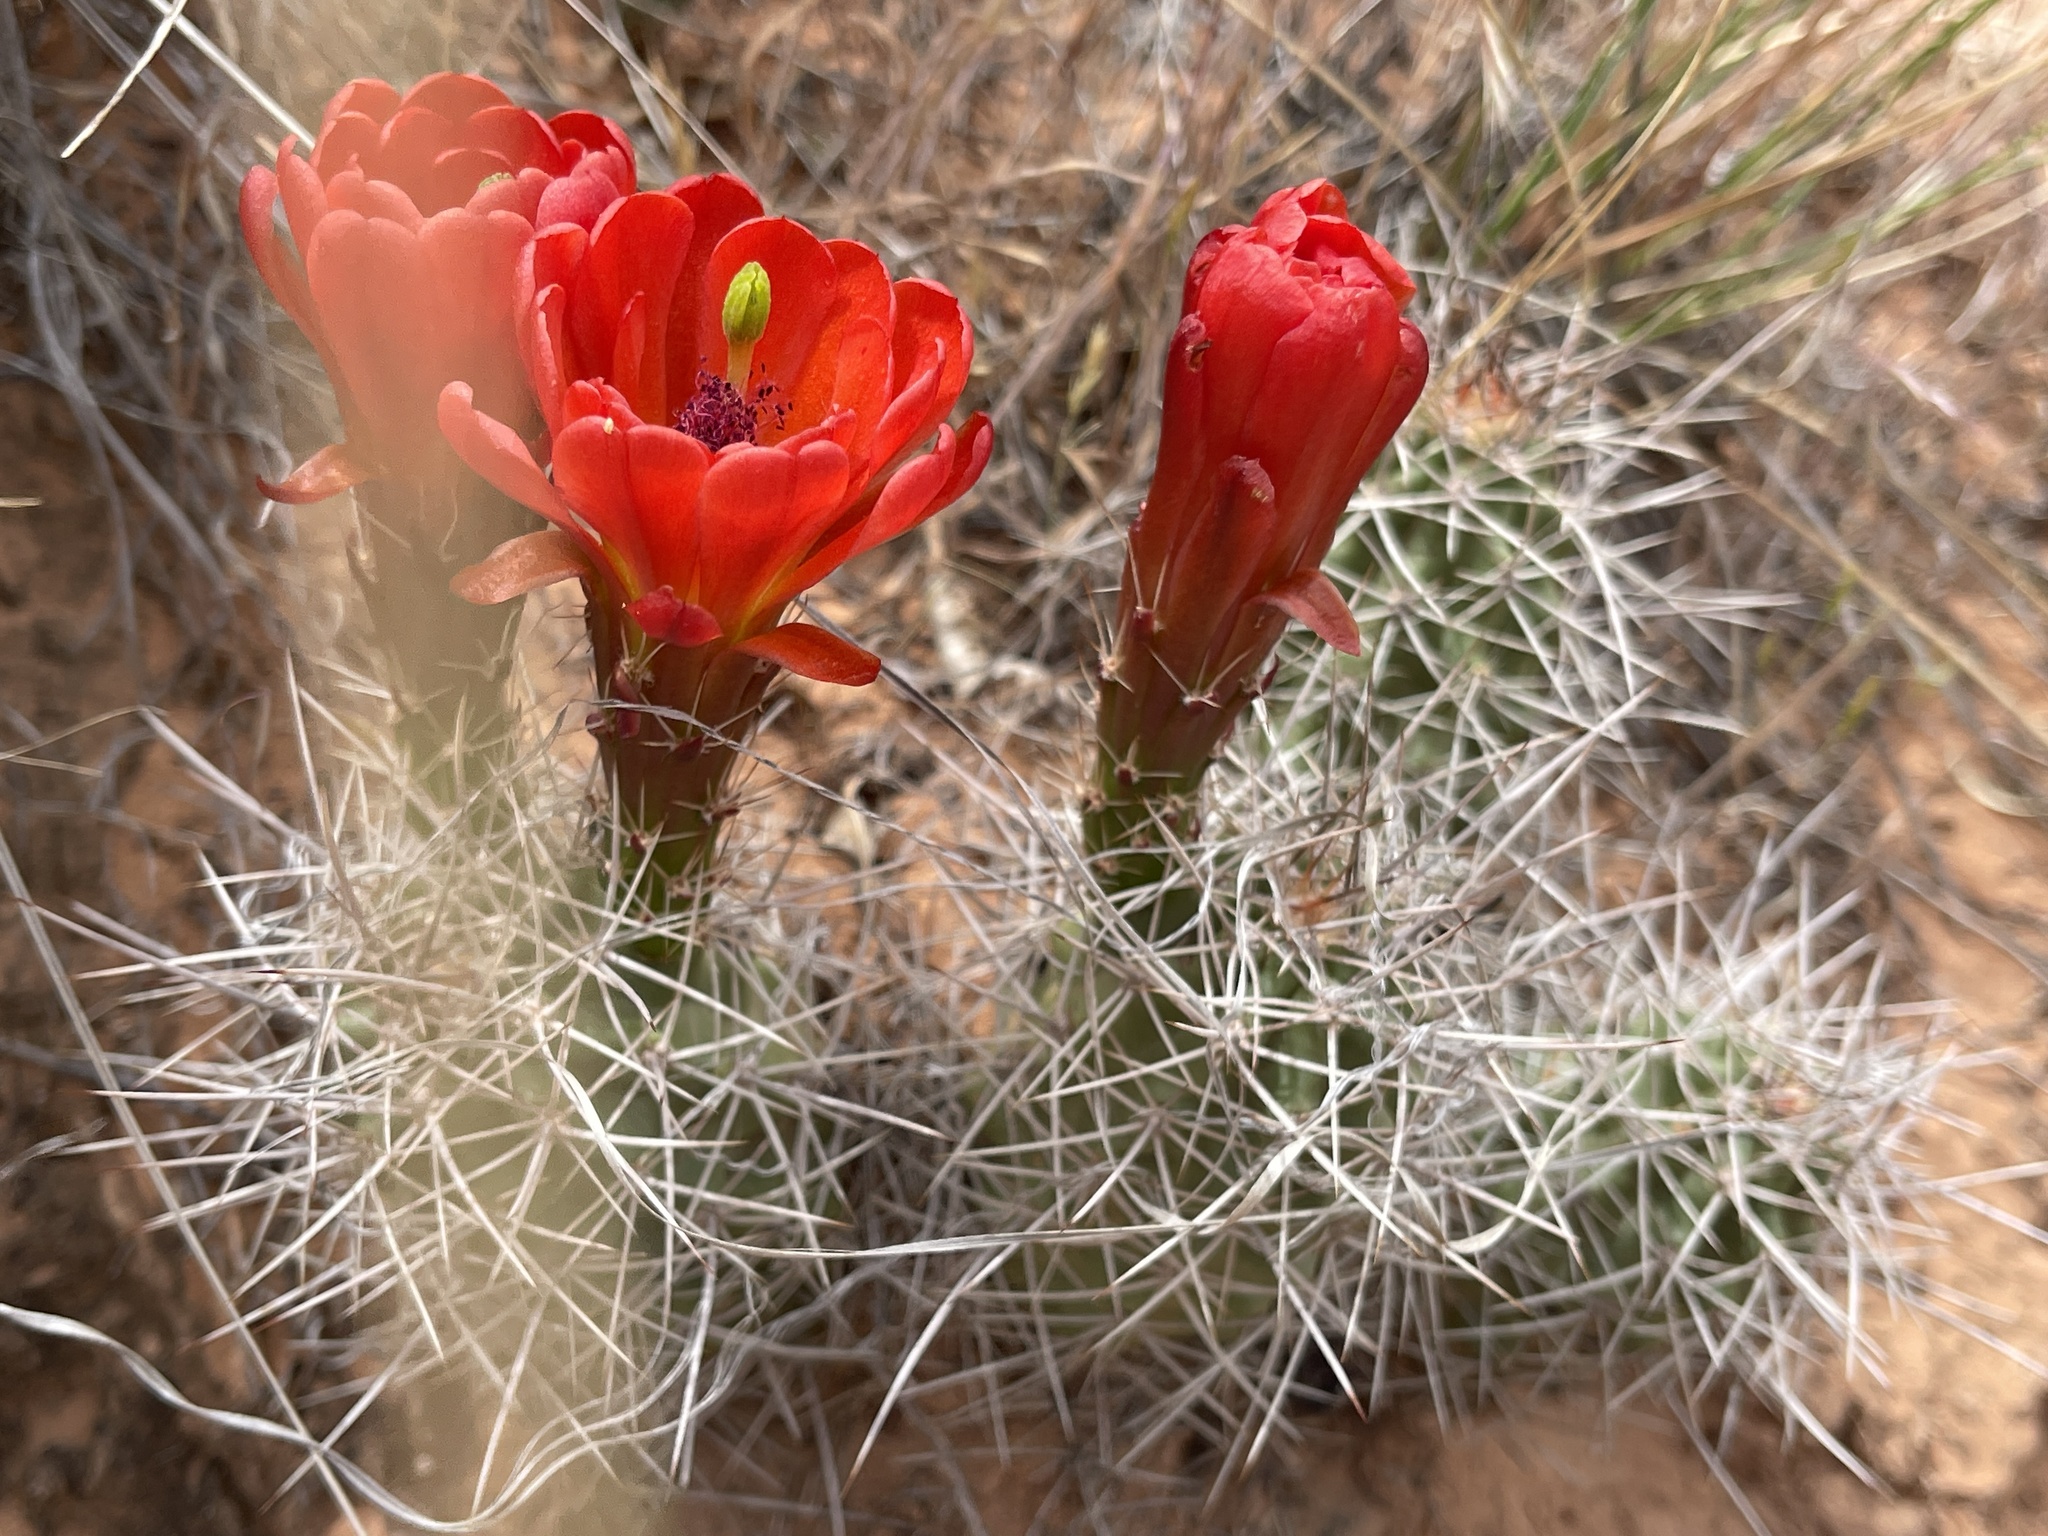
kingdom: Plantae
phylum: Tracheophyta
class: Magnoliopsida
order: Caryophyllales
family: Cactaceae
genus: Echinocereus
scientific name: Echinocereus triglochidiatus
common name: Claretcup hedgehog
